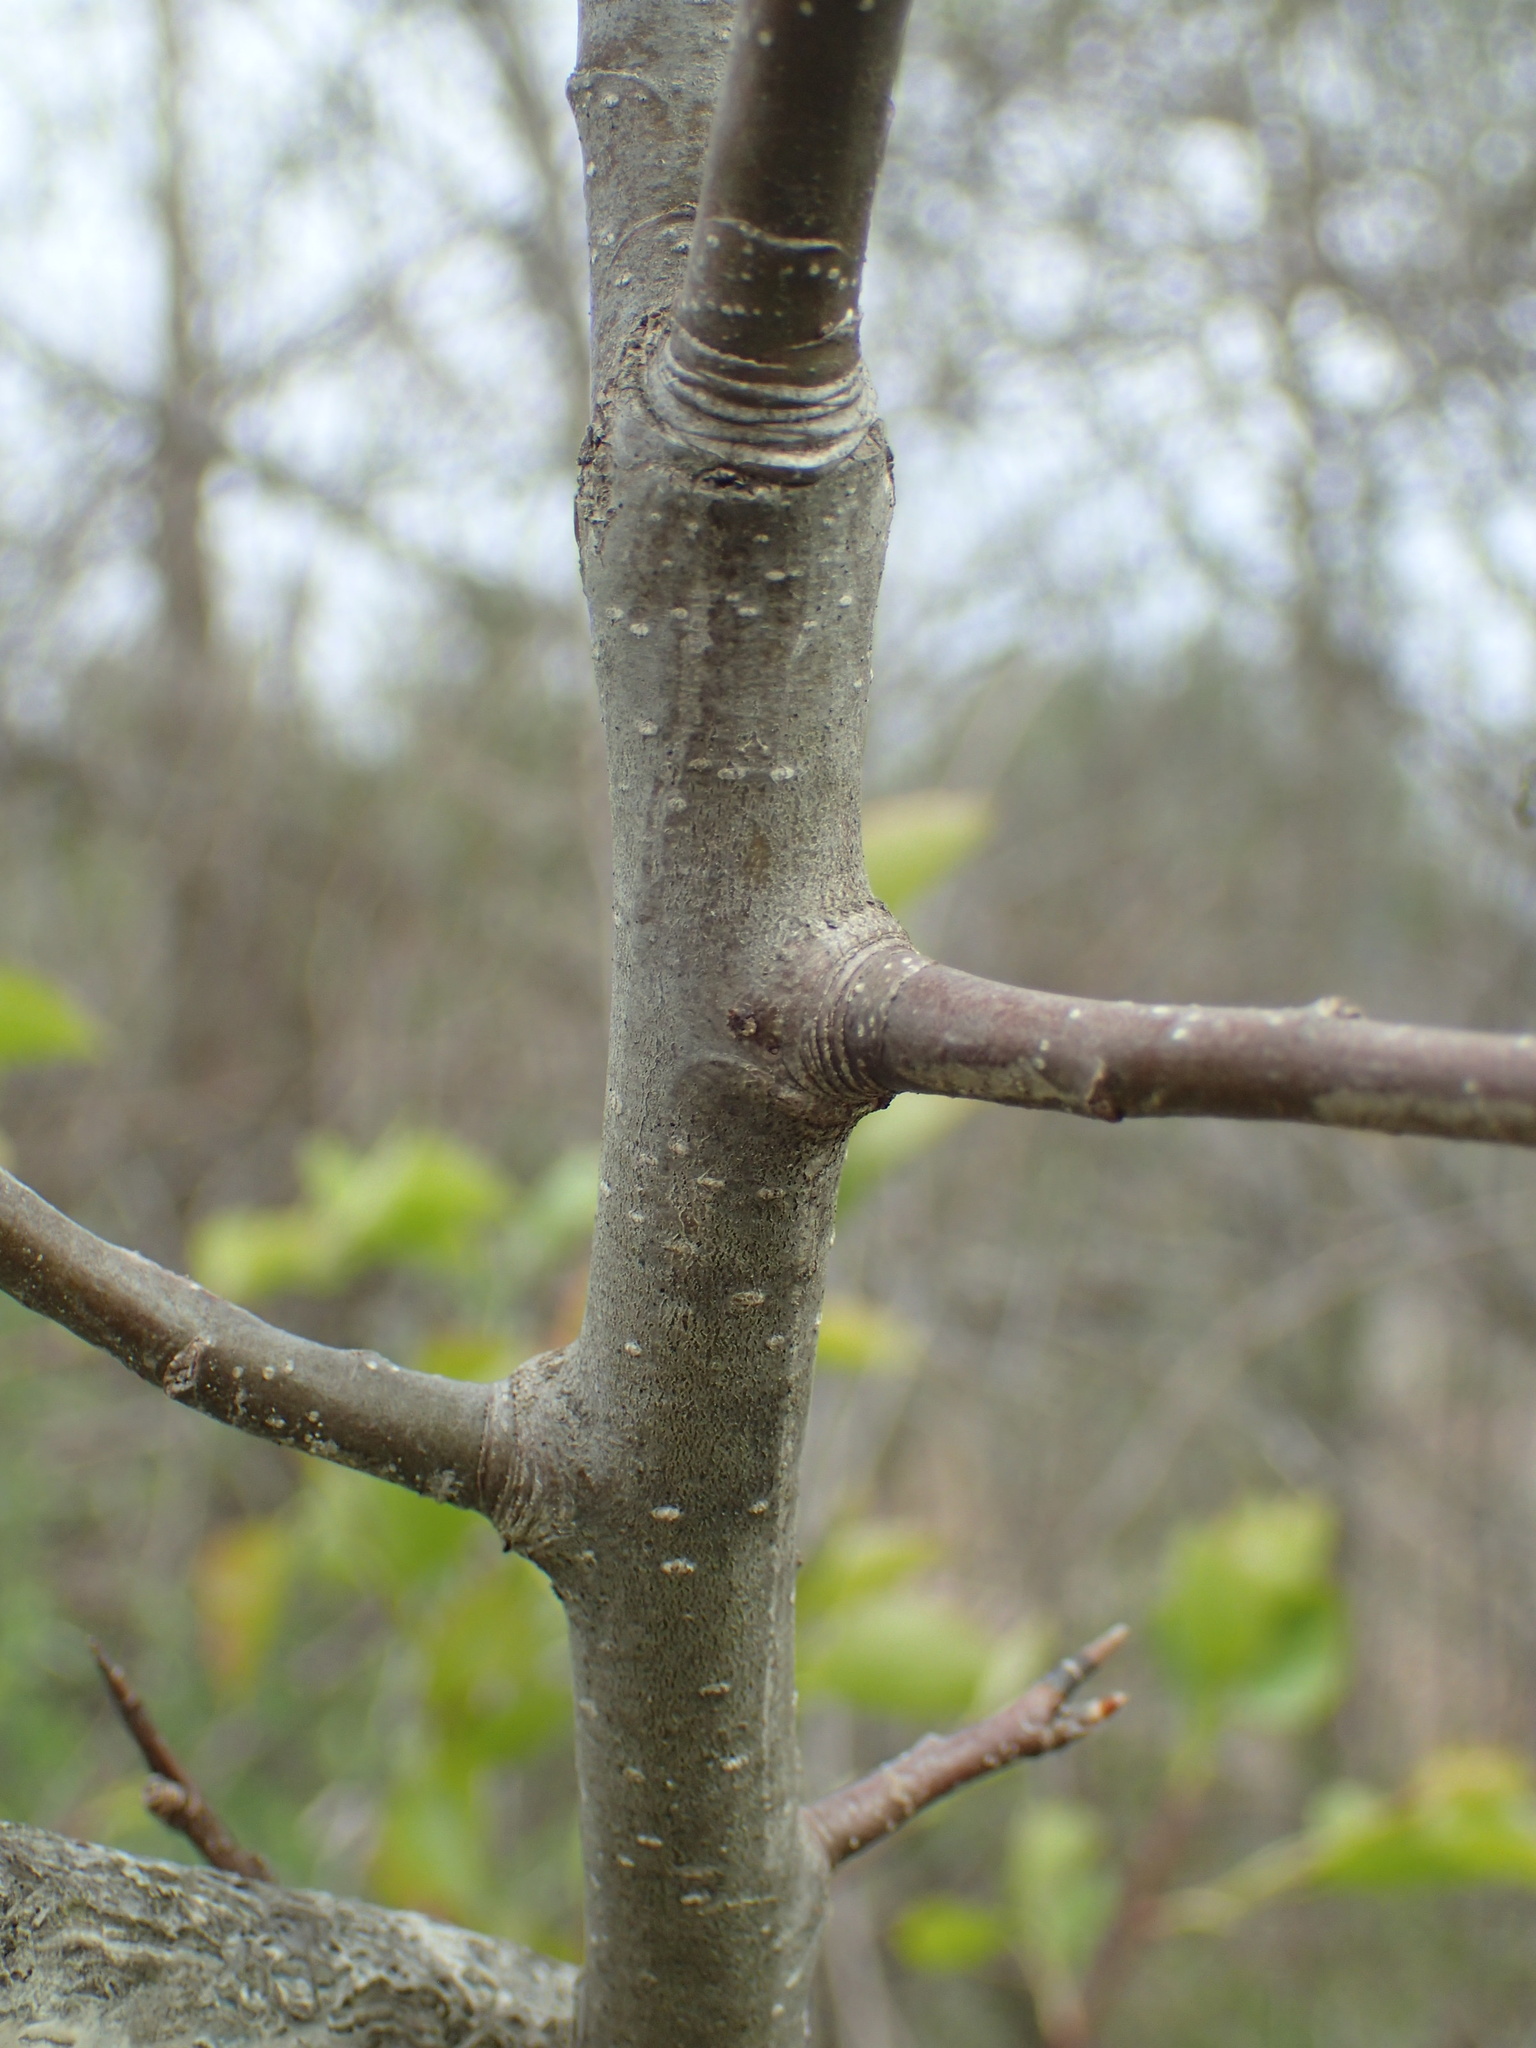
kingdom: Plantae
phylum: Tracheophyta
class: Magnoliopsida
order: Rosales
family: Rosaceae
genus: Pyrus
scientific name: Pyrus calleryana
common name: Callery pear
